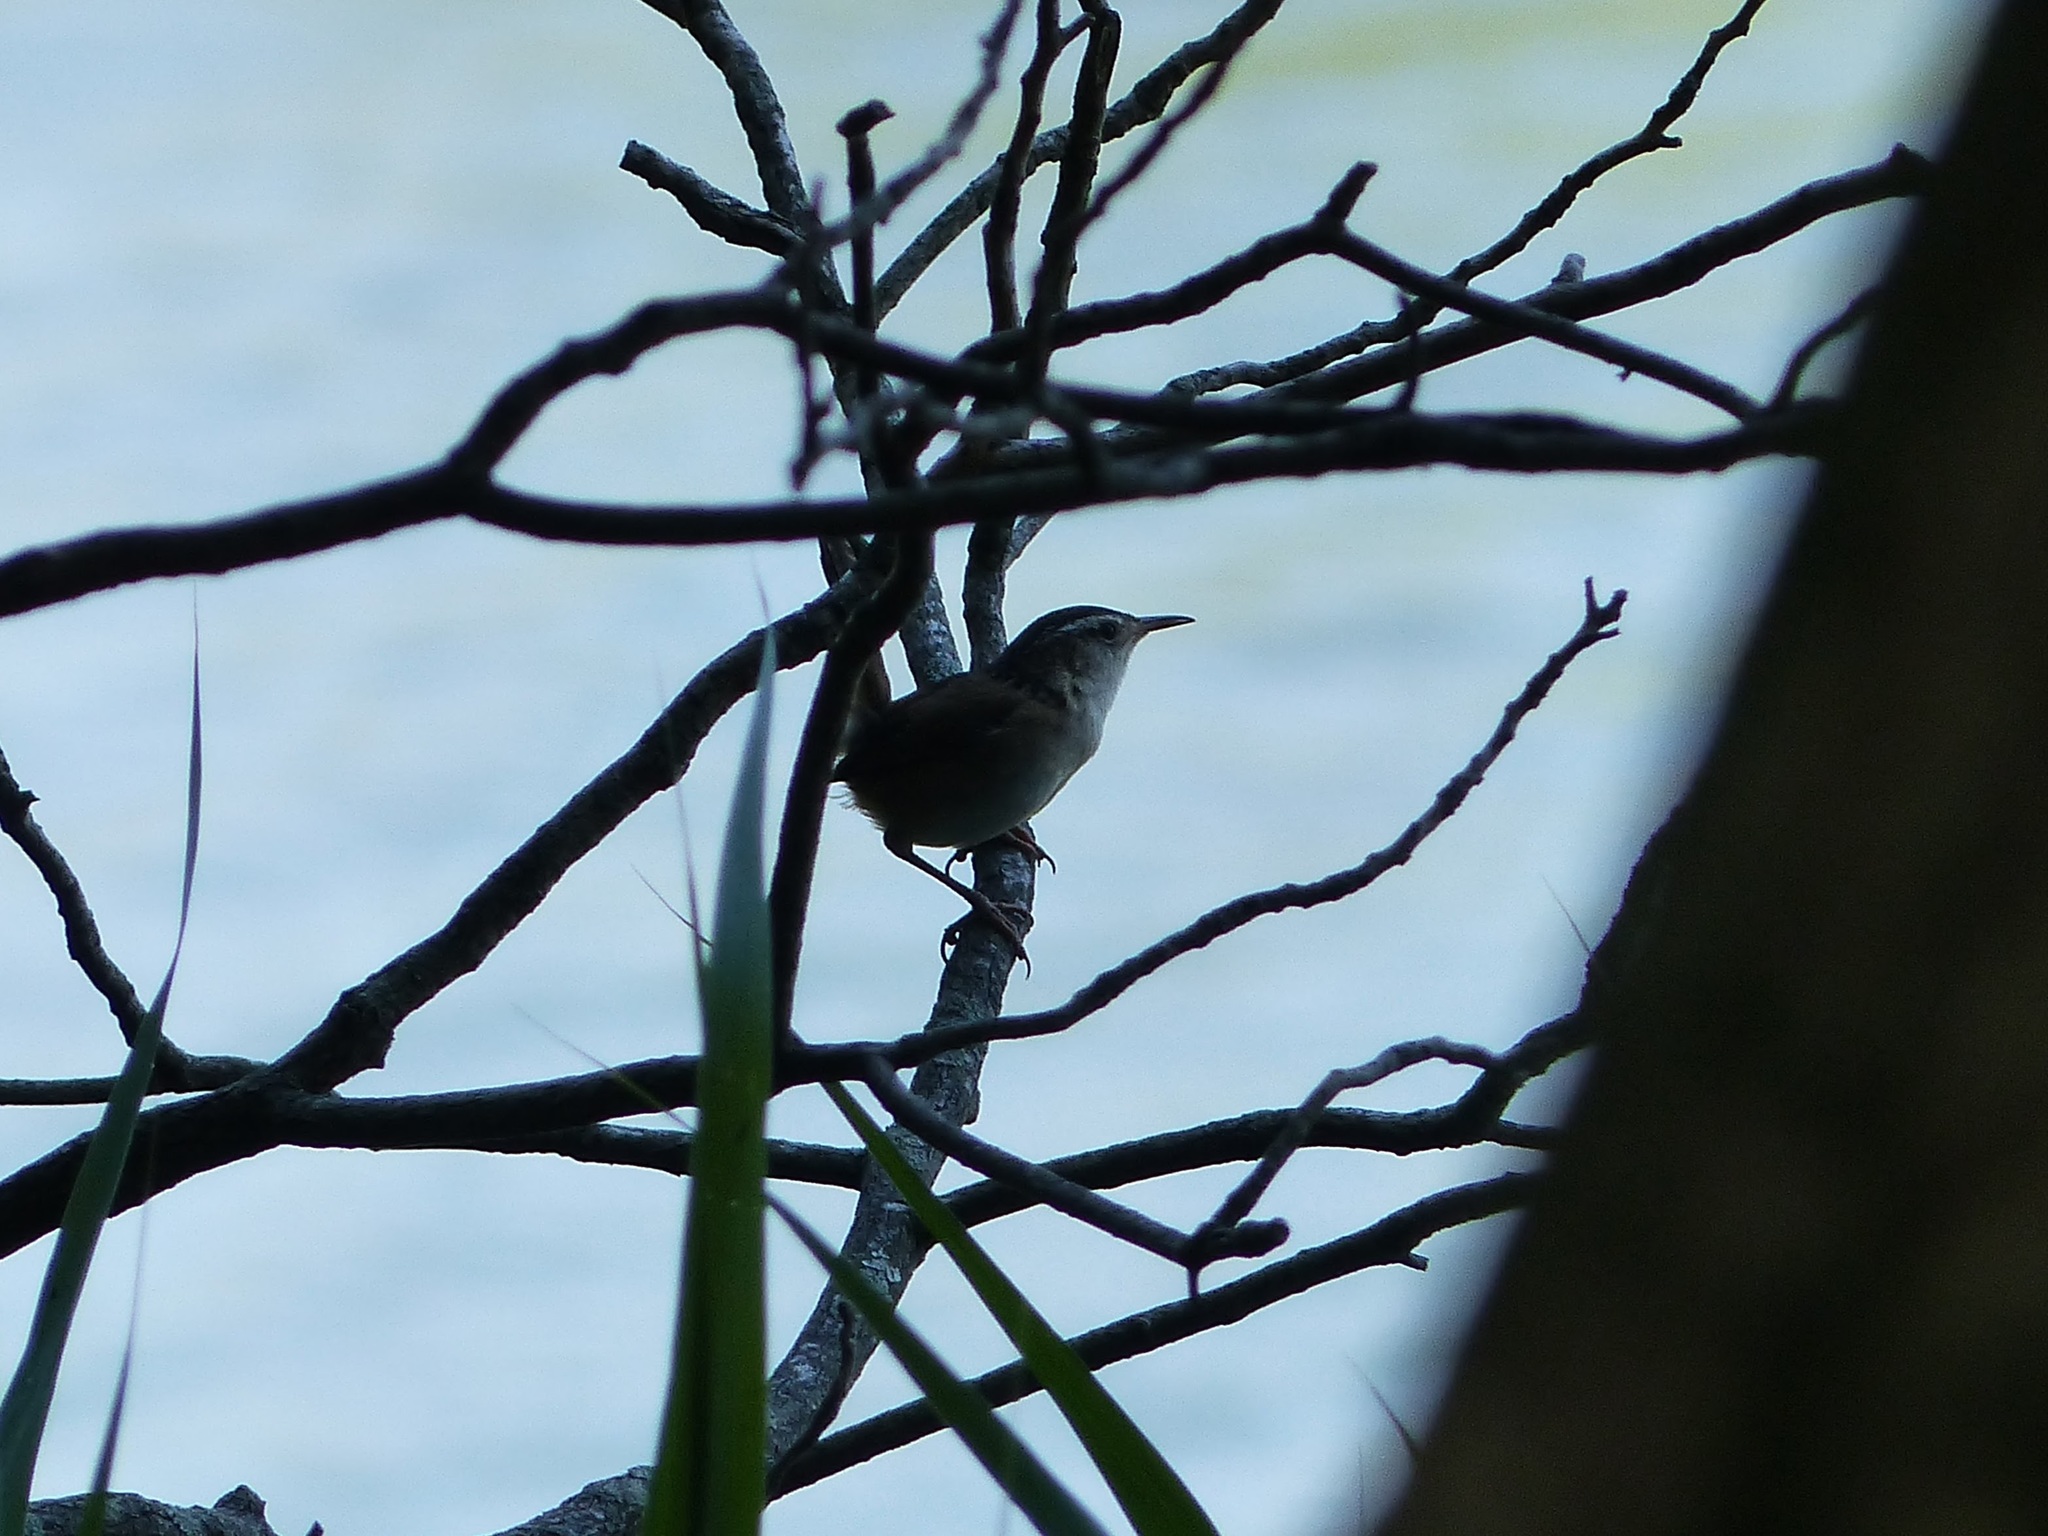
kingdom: Animalia
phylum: Chordata
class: Aves
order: Passeriformes
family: Troglodytidae
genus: Cistothorus
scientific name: Cistothorus palustris
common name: Marsh wren
